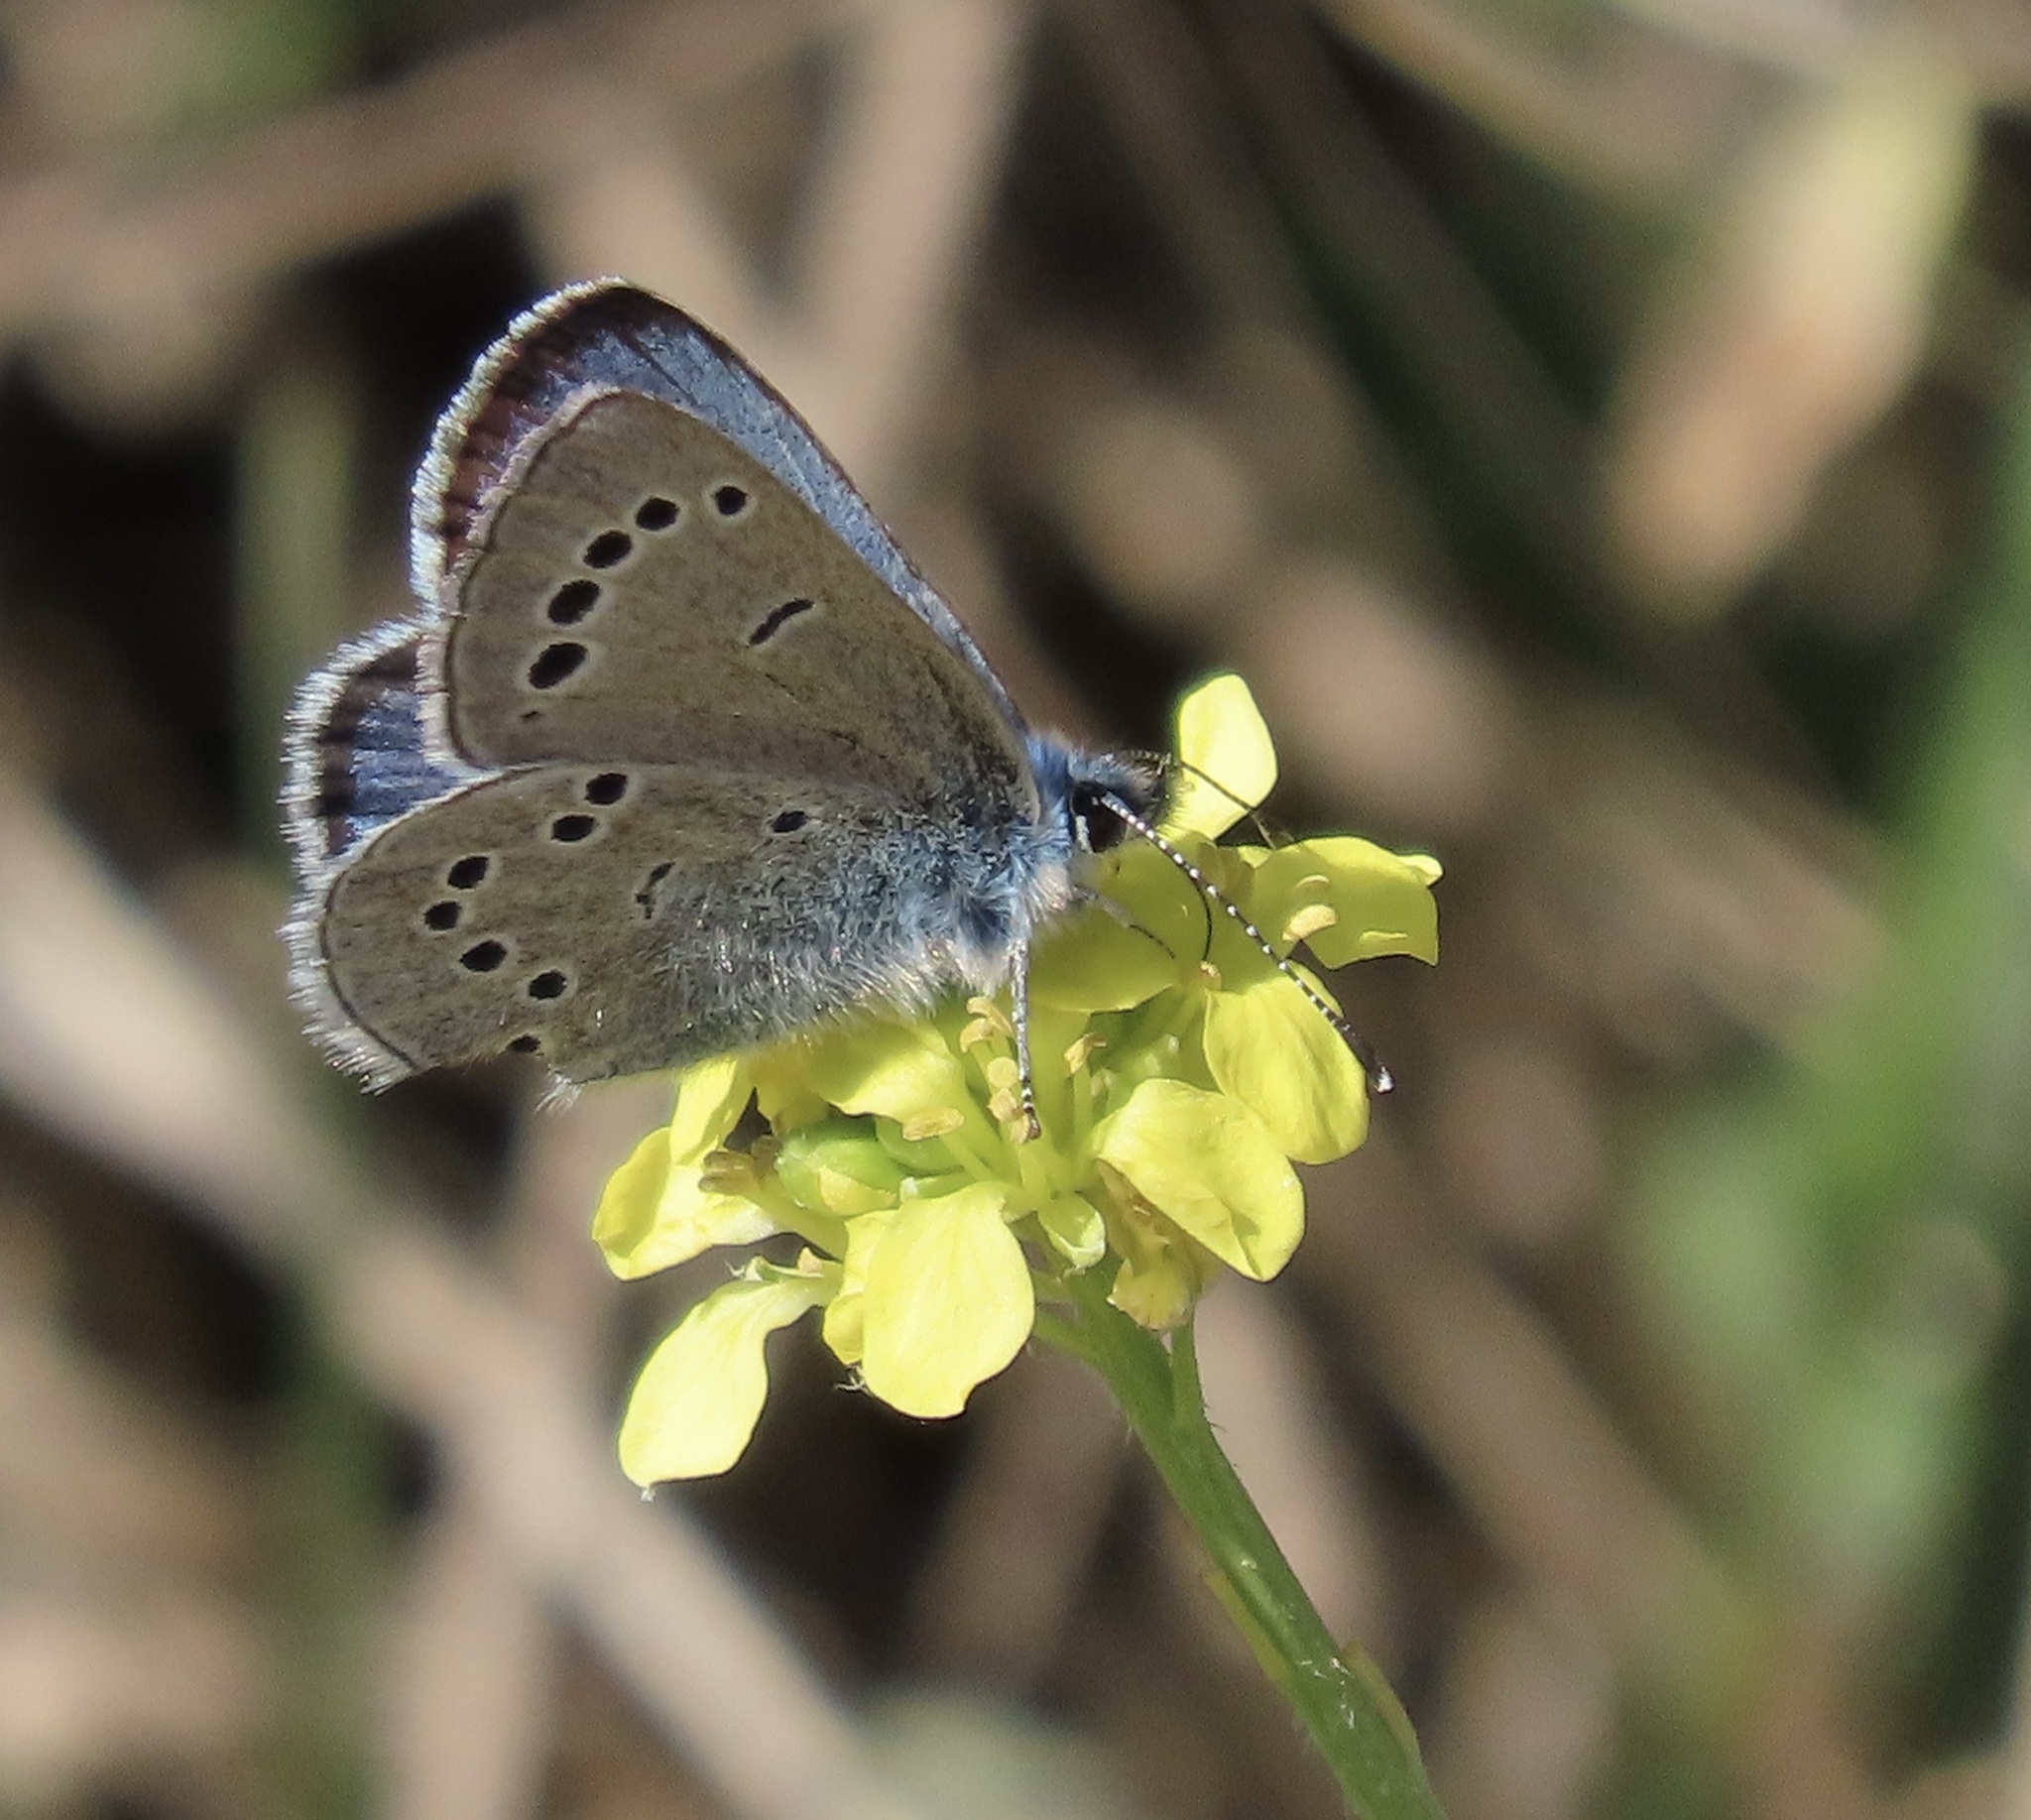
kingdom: Animalia
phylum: Arthropoda
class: Insecta
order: Lepidoptera
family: Lycaenidae
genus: Glaucopsyche
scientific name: Glaucopsyche lygdamus
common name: Silvery blue
